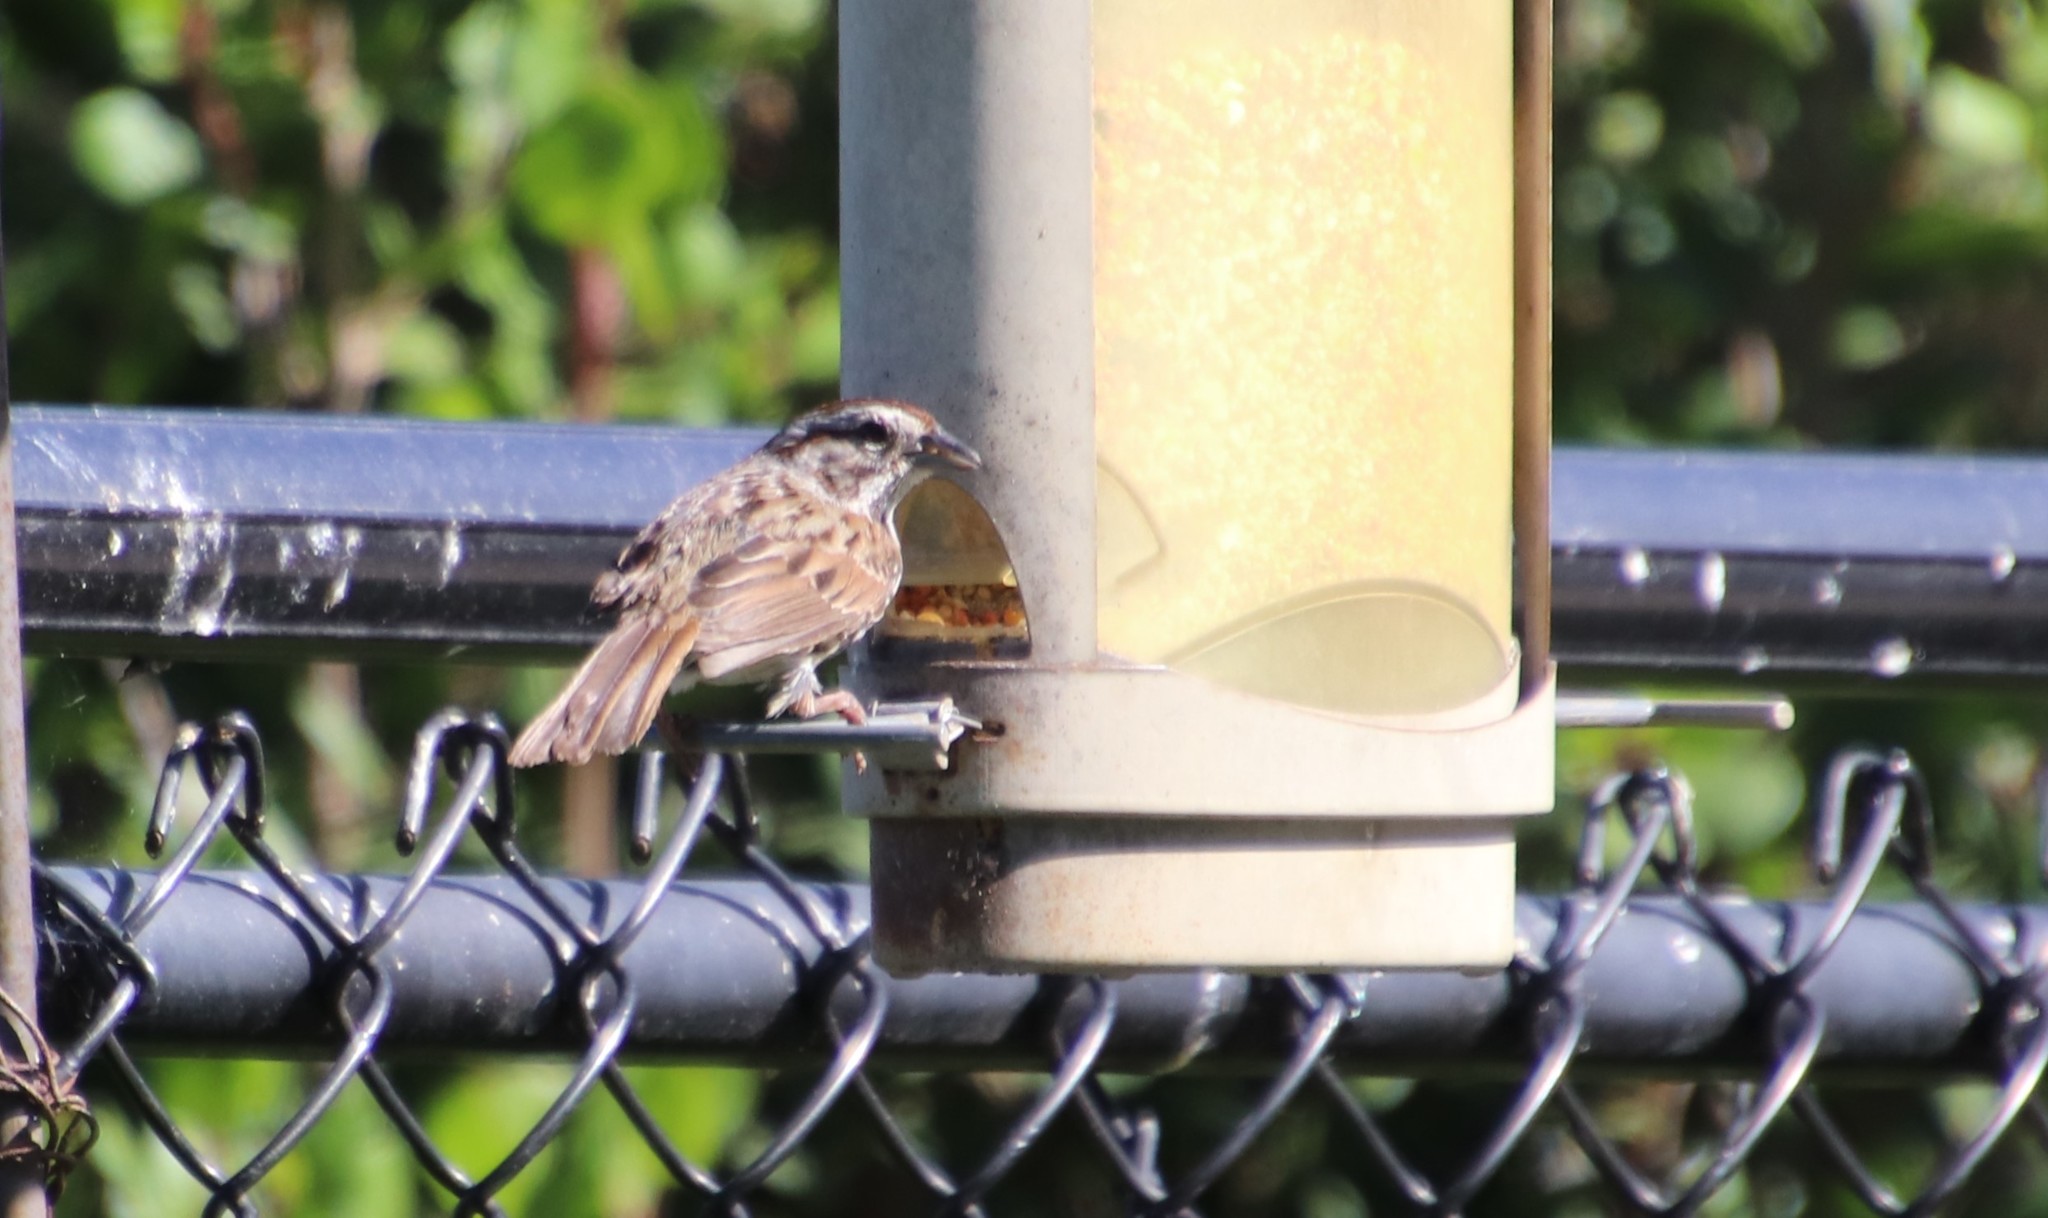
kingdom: Animalia
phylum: Chordata
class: Aves
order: Passeriformes
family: Passerellidae
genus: Melospiza
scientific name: Melospiza melodia
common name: Song sparrow
